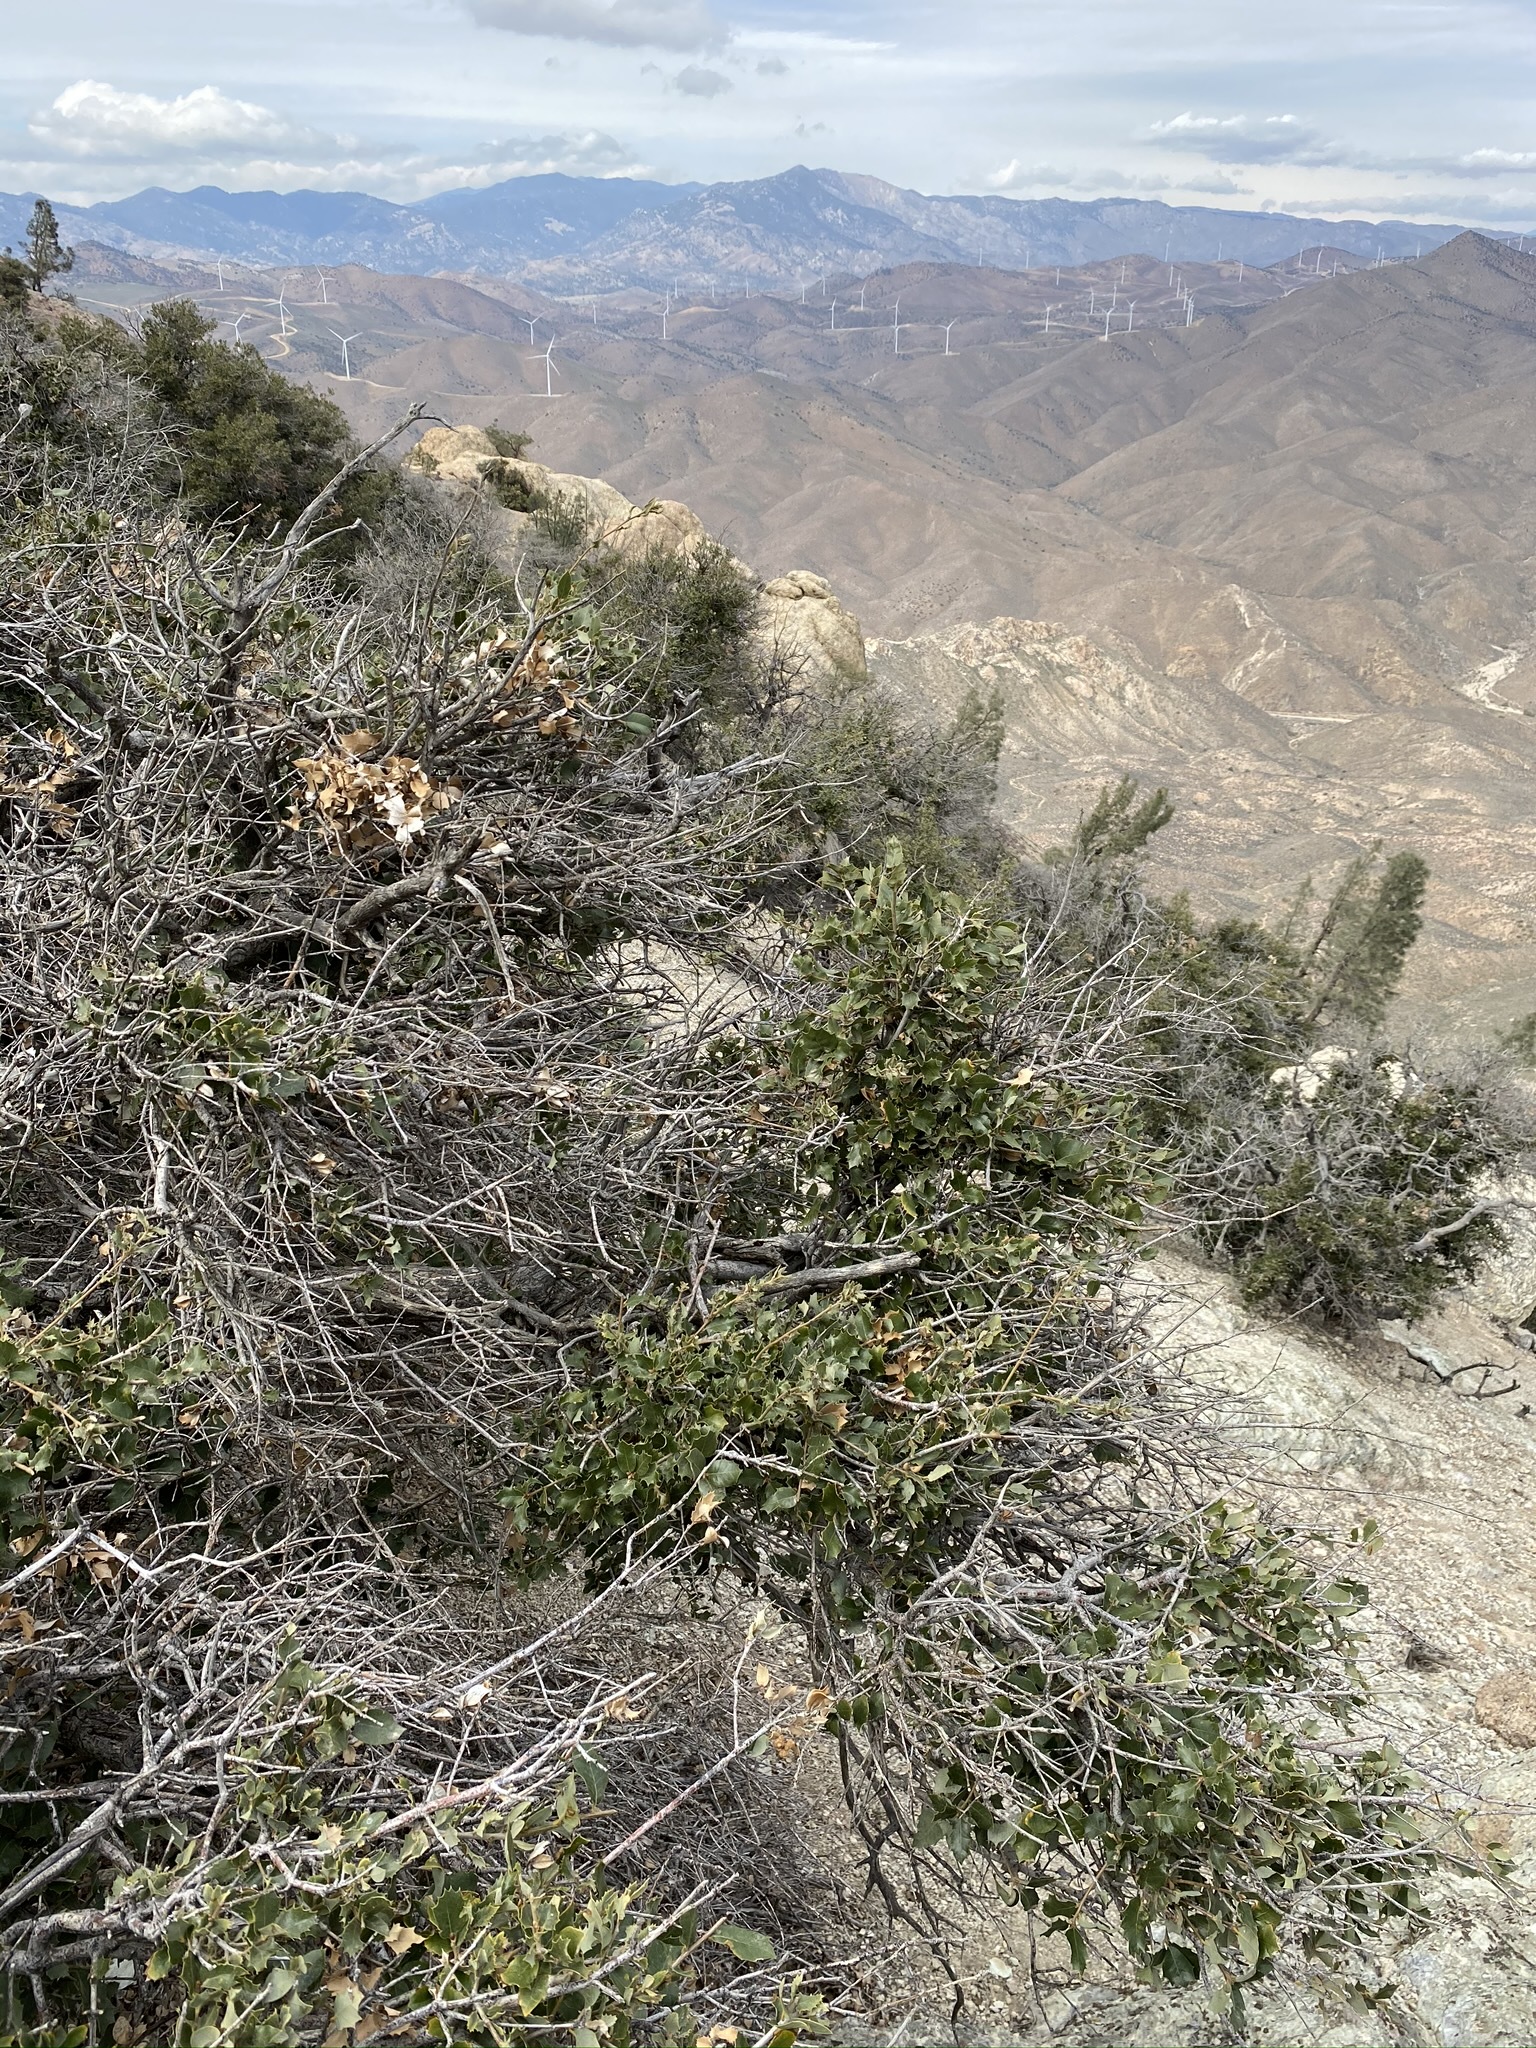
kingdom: Plantae
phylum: Tracheophyta
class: Magnoliopsida
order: Fagales
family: Fagaceae
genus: Quercus
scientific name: Quercus chrysolepis
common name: Canyon live oak
